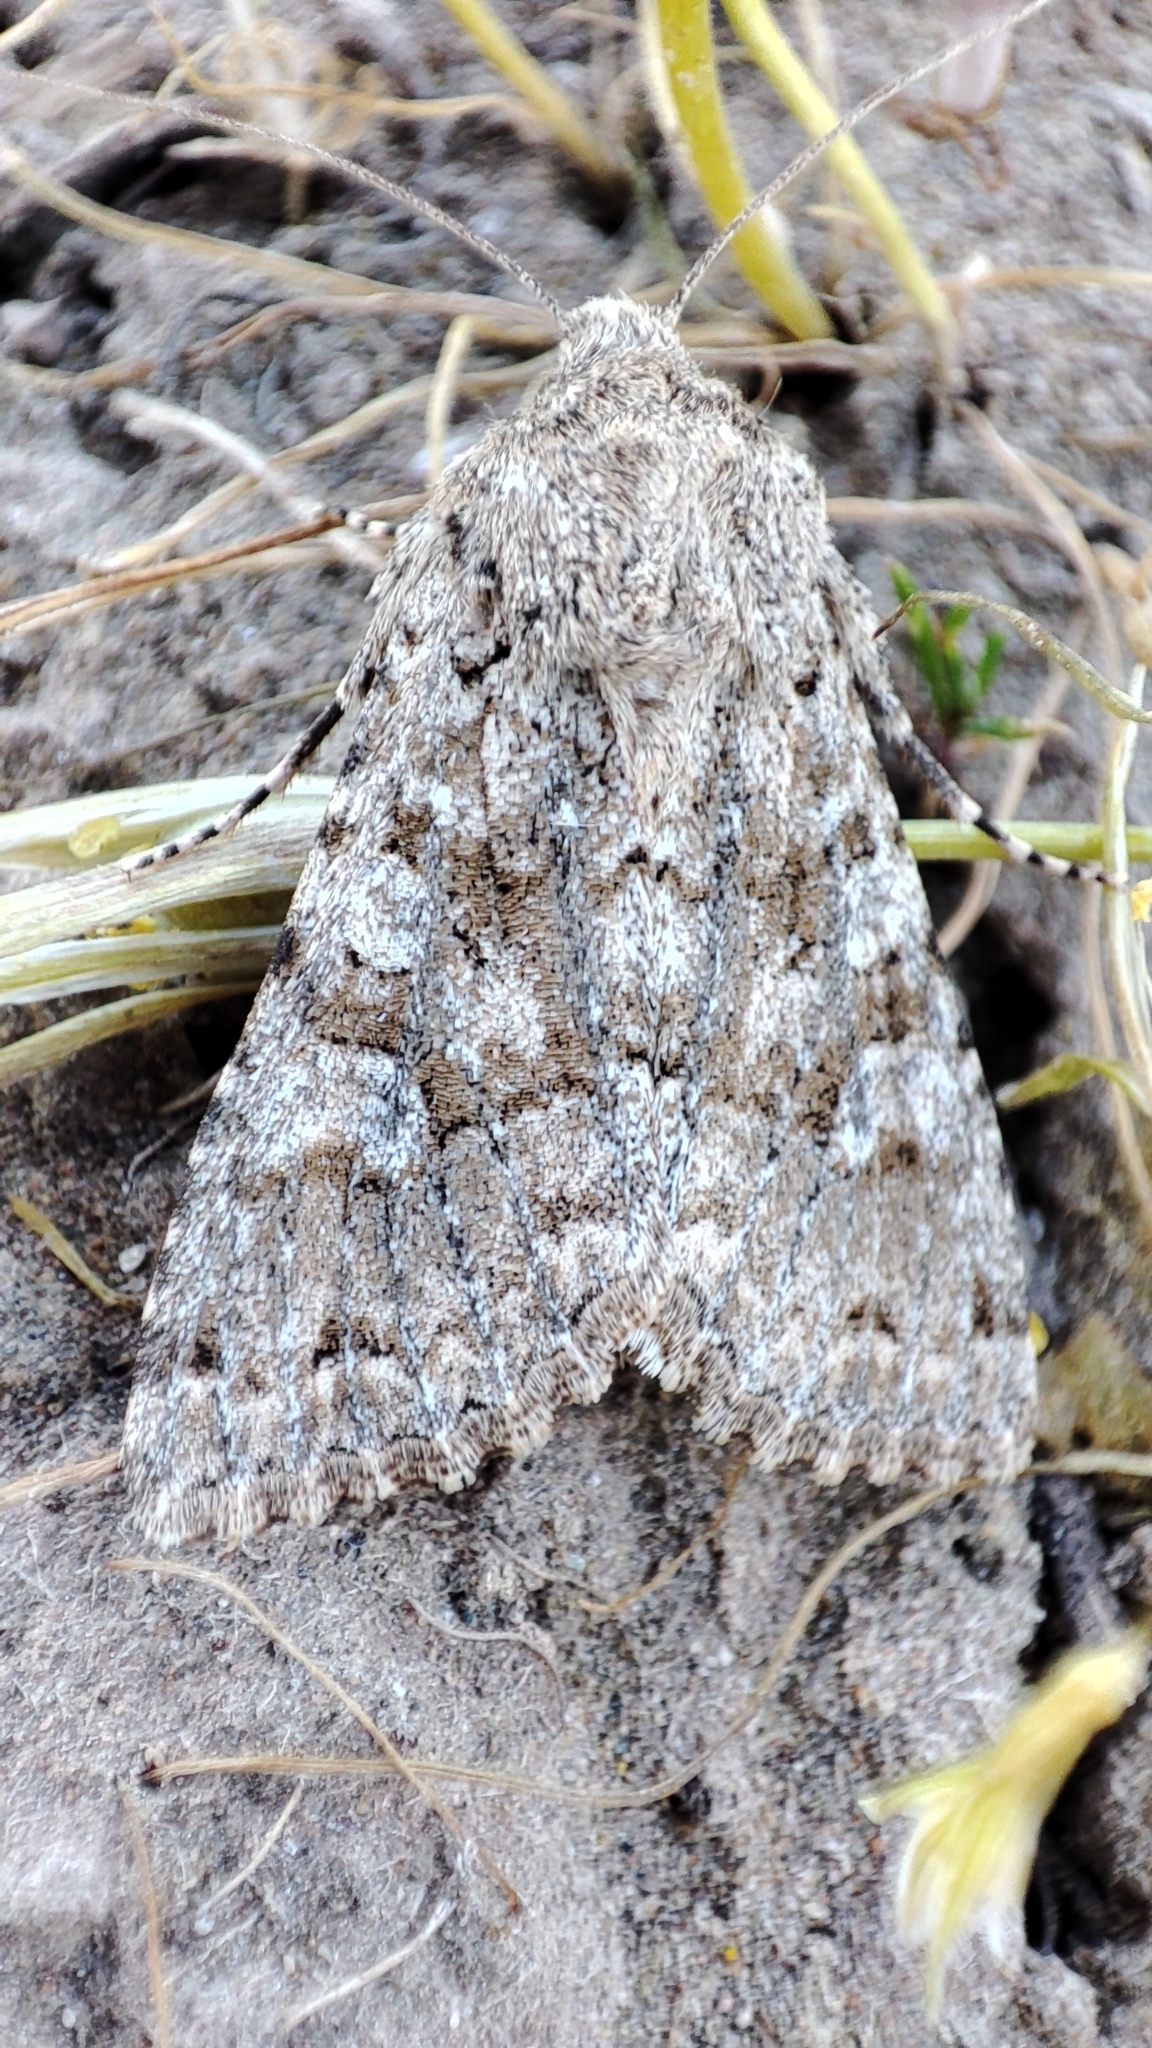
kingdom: Animalia
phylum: Arthropoda
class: Insecta
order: Lepidoptera
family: Noctuidae
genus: Anarta
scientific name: Anarta sabulorum
